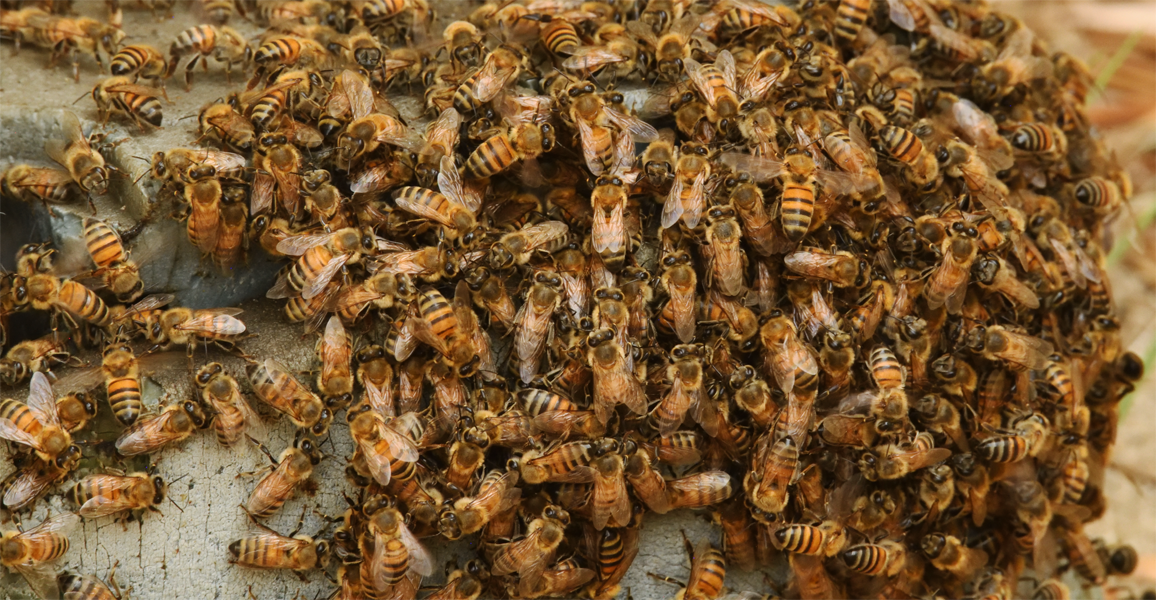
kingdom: Animalia
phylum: Arthropoda
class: Insecta
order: Hymenoptera
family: Apidae
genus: Apis
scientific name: Apis mellifera
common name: Honey bee
